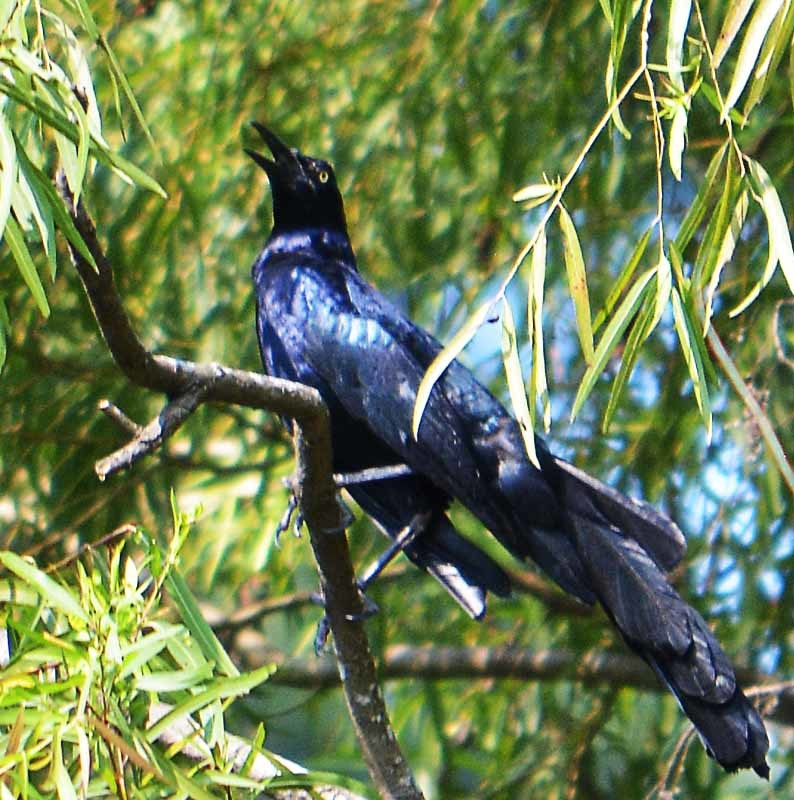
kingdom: Animalia
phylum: Chordata
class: Aves
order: Passeriformes
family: Icteridae
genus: Quiscalus
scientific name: Quiscalus mexicanus
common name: Great-tailed grackle
